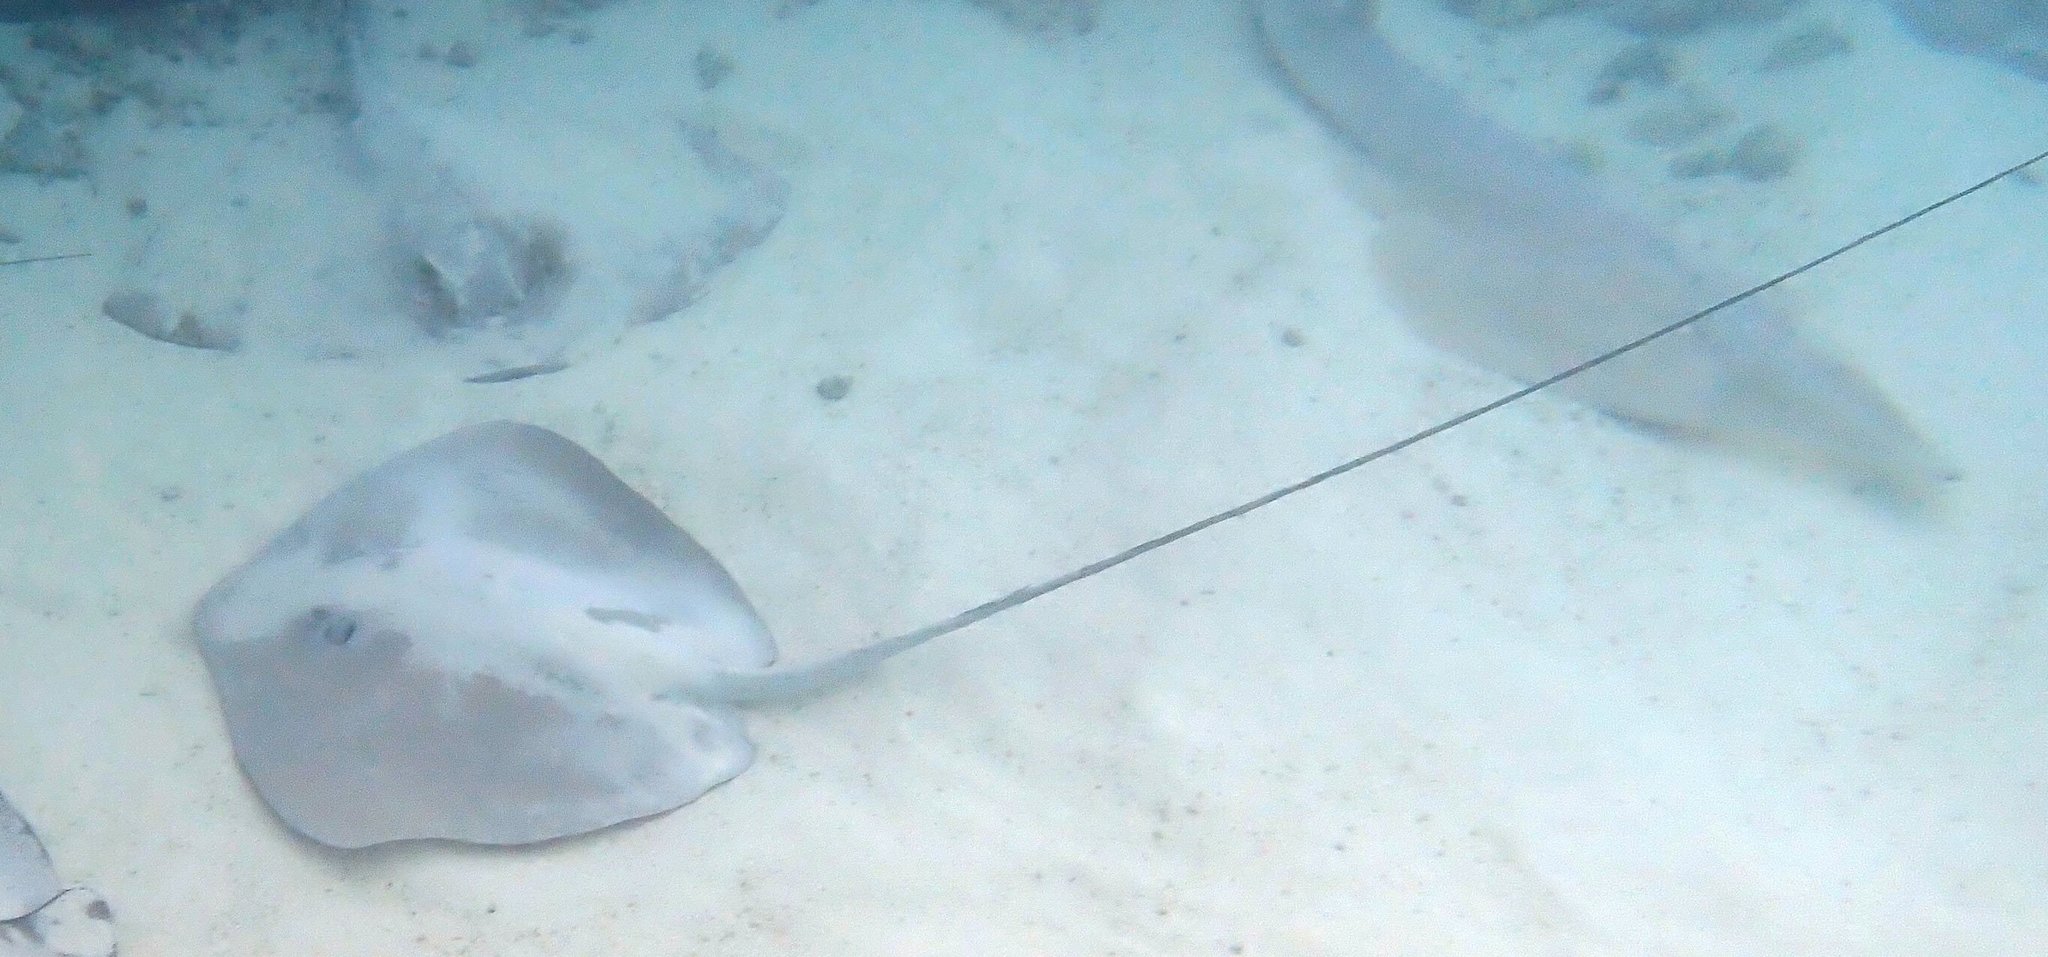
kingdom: Animalia
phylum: Chordata
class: Elasmobranchii
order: Myliobatiformes
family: Dasyatidae
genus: Pateobatis
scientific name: Pateobatis fai
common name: Pink whipray
